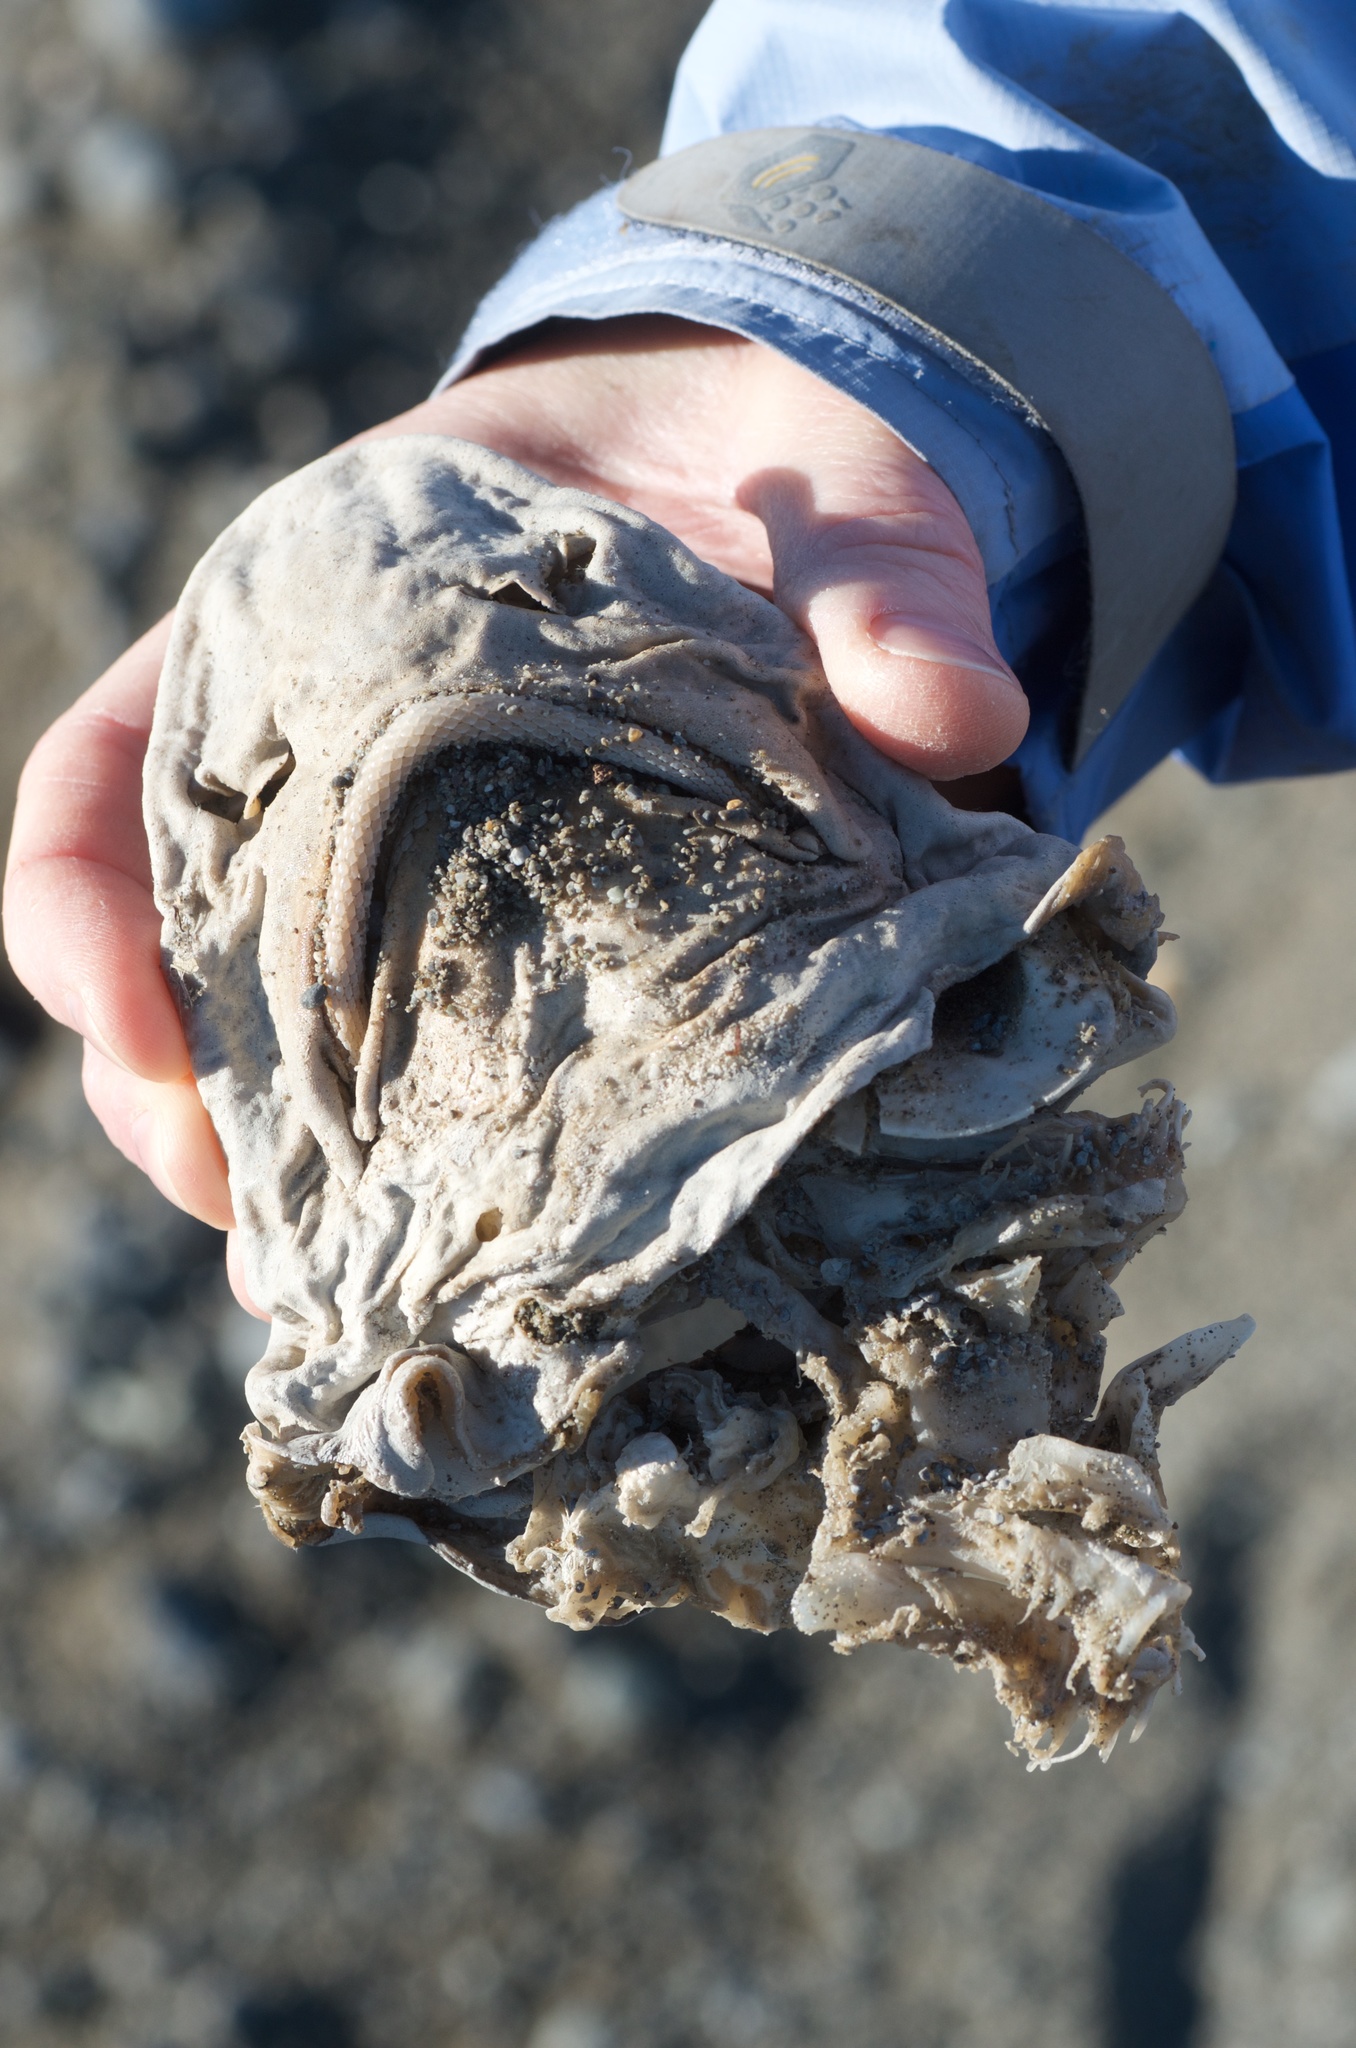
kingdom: Animalia
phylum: Chordata
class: Elasmobranchii
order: Carcharhiniformes
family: Triakidae
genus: Mustelus
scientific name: Mustelus lenticulatus
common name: Gummy shark
